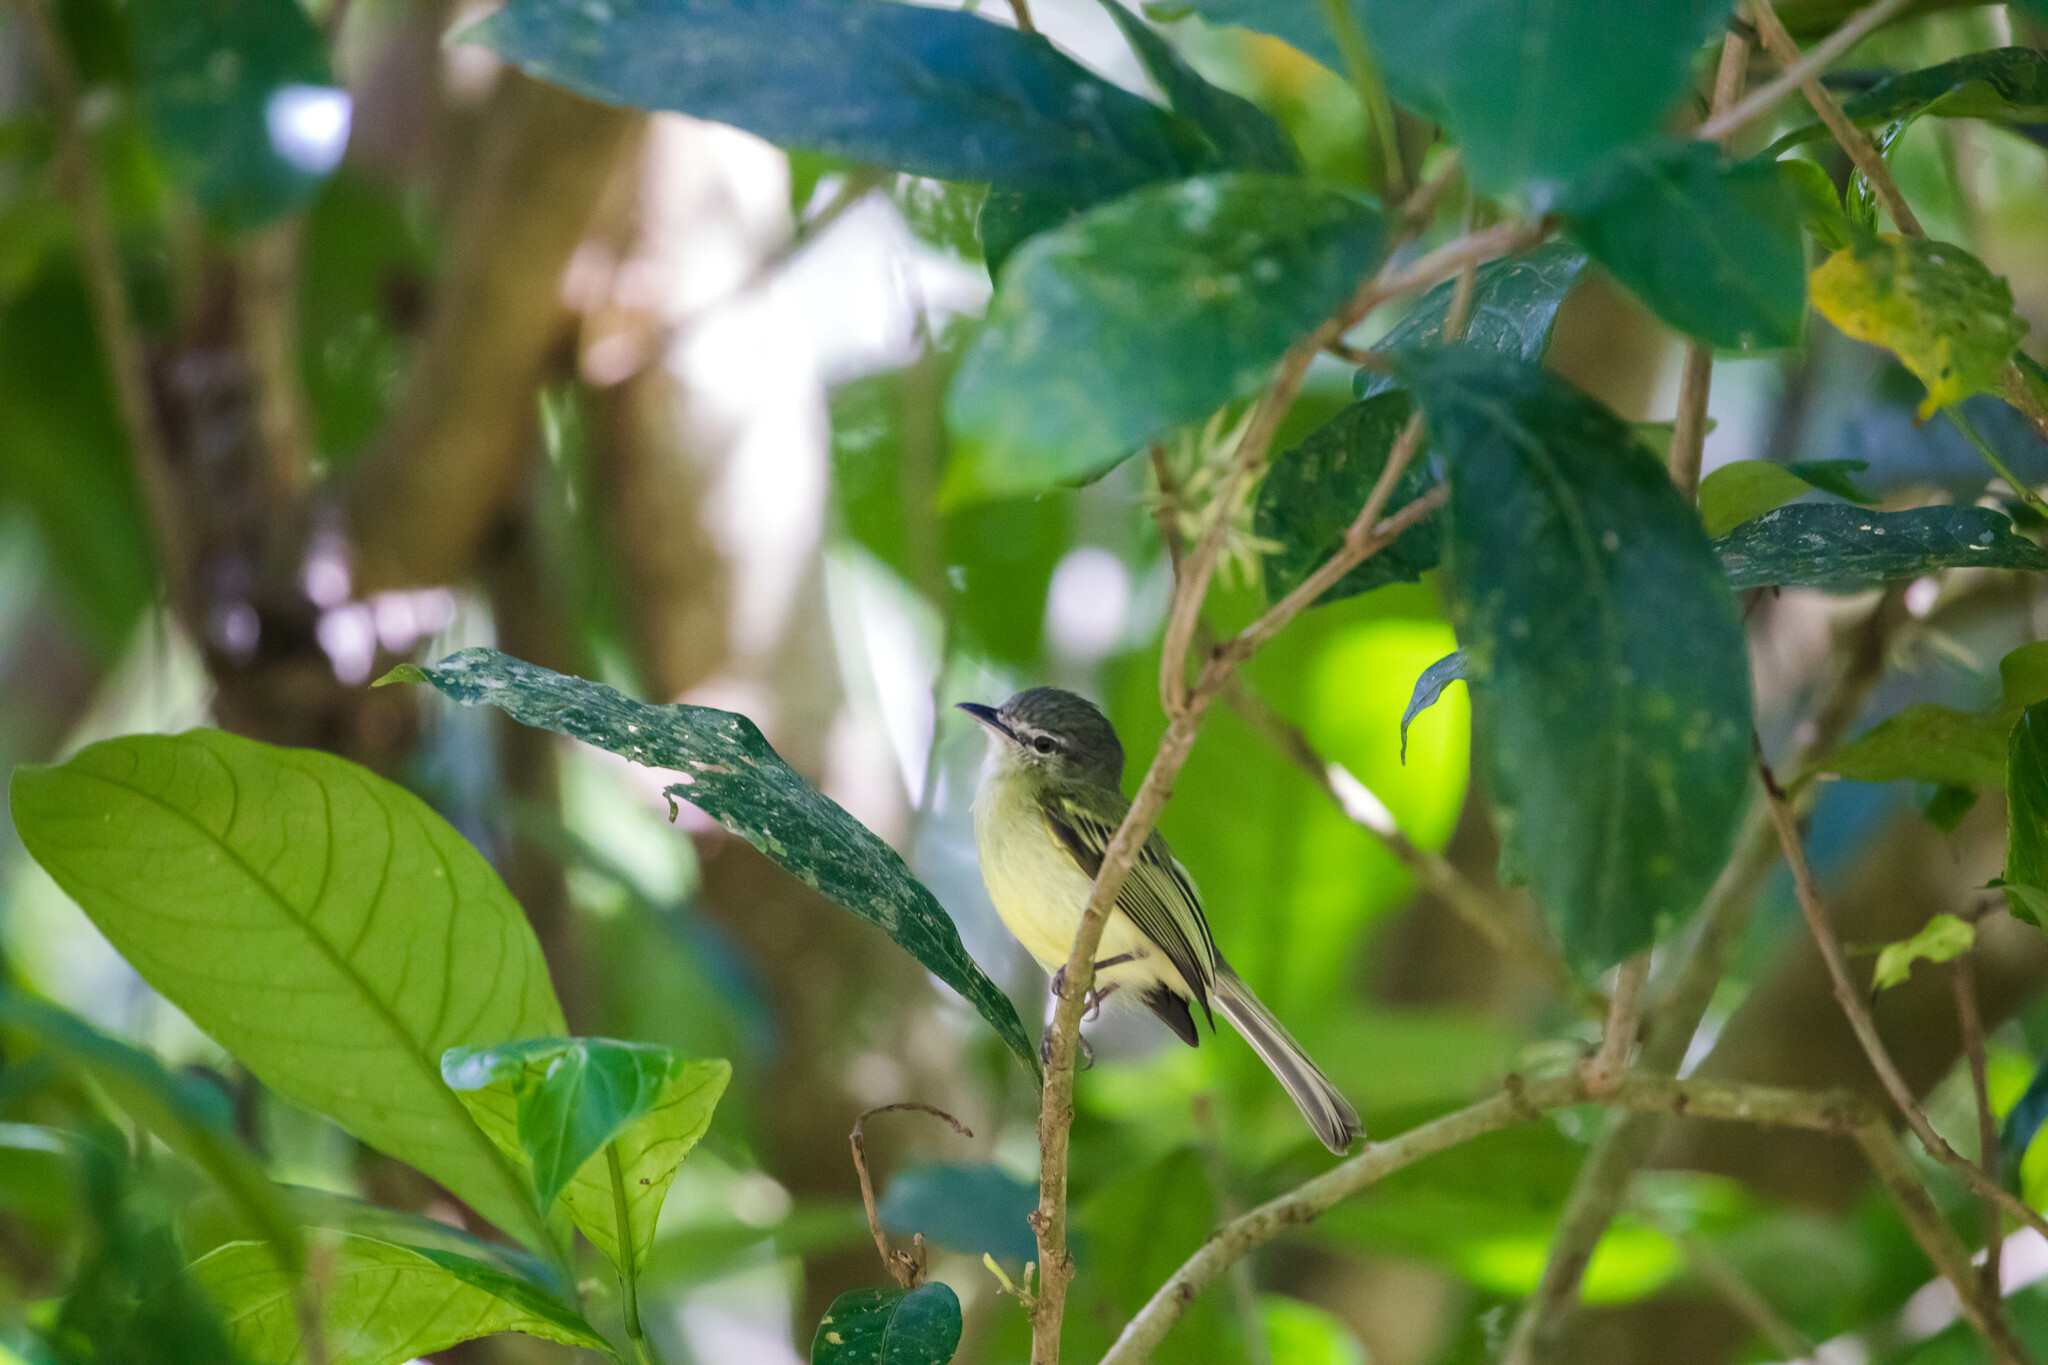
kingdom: Animalia
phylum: Chordata
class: Aves
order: Passeriformes
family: Tyrannidae
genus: Tolmomyias
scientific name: Tolmomyias sulphurescens
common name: Yellow-olive flycatcher
